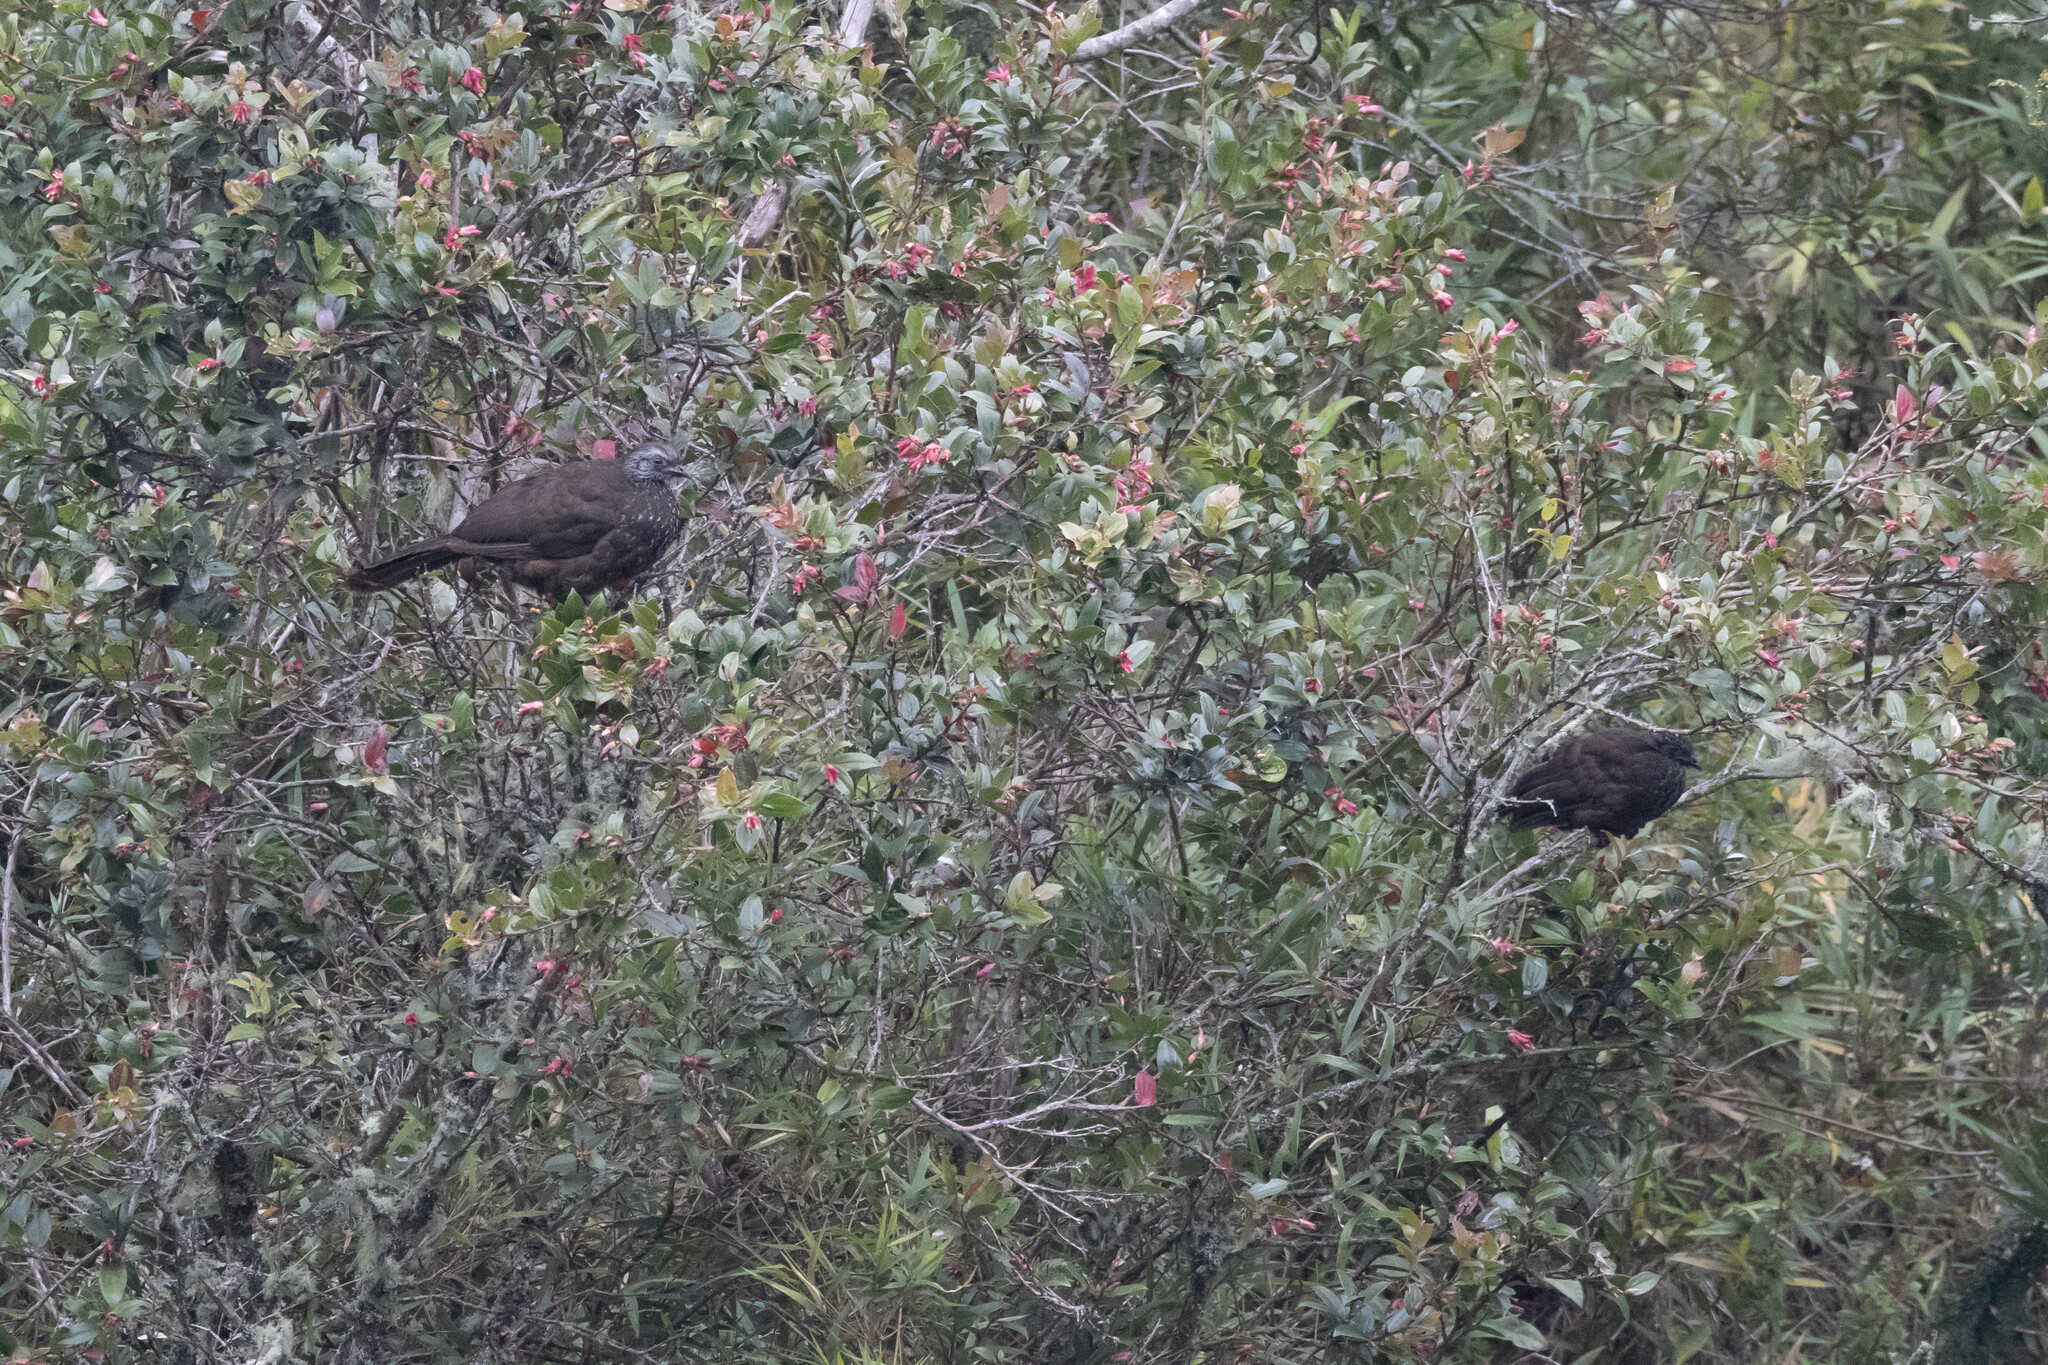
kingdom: Animalia
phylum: Chordata
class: Aves
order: Galliformes
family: Cracidae
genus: Penelope
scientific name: Penelope barbata
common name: Bearded guan
